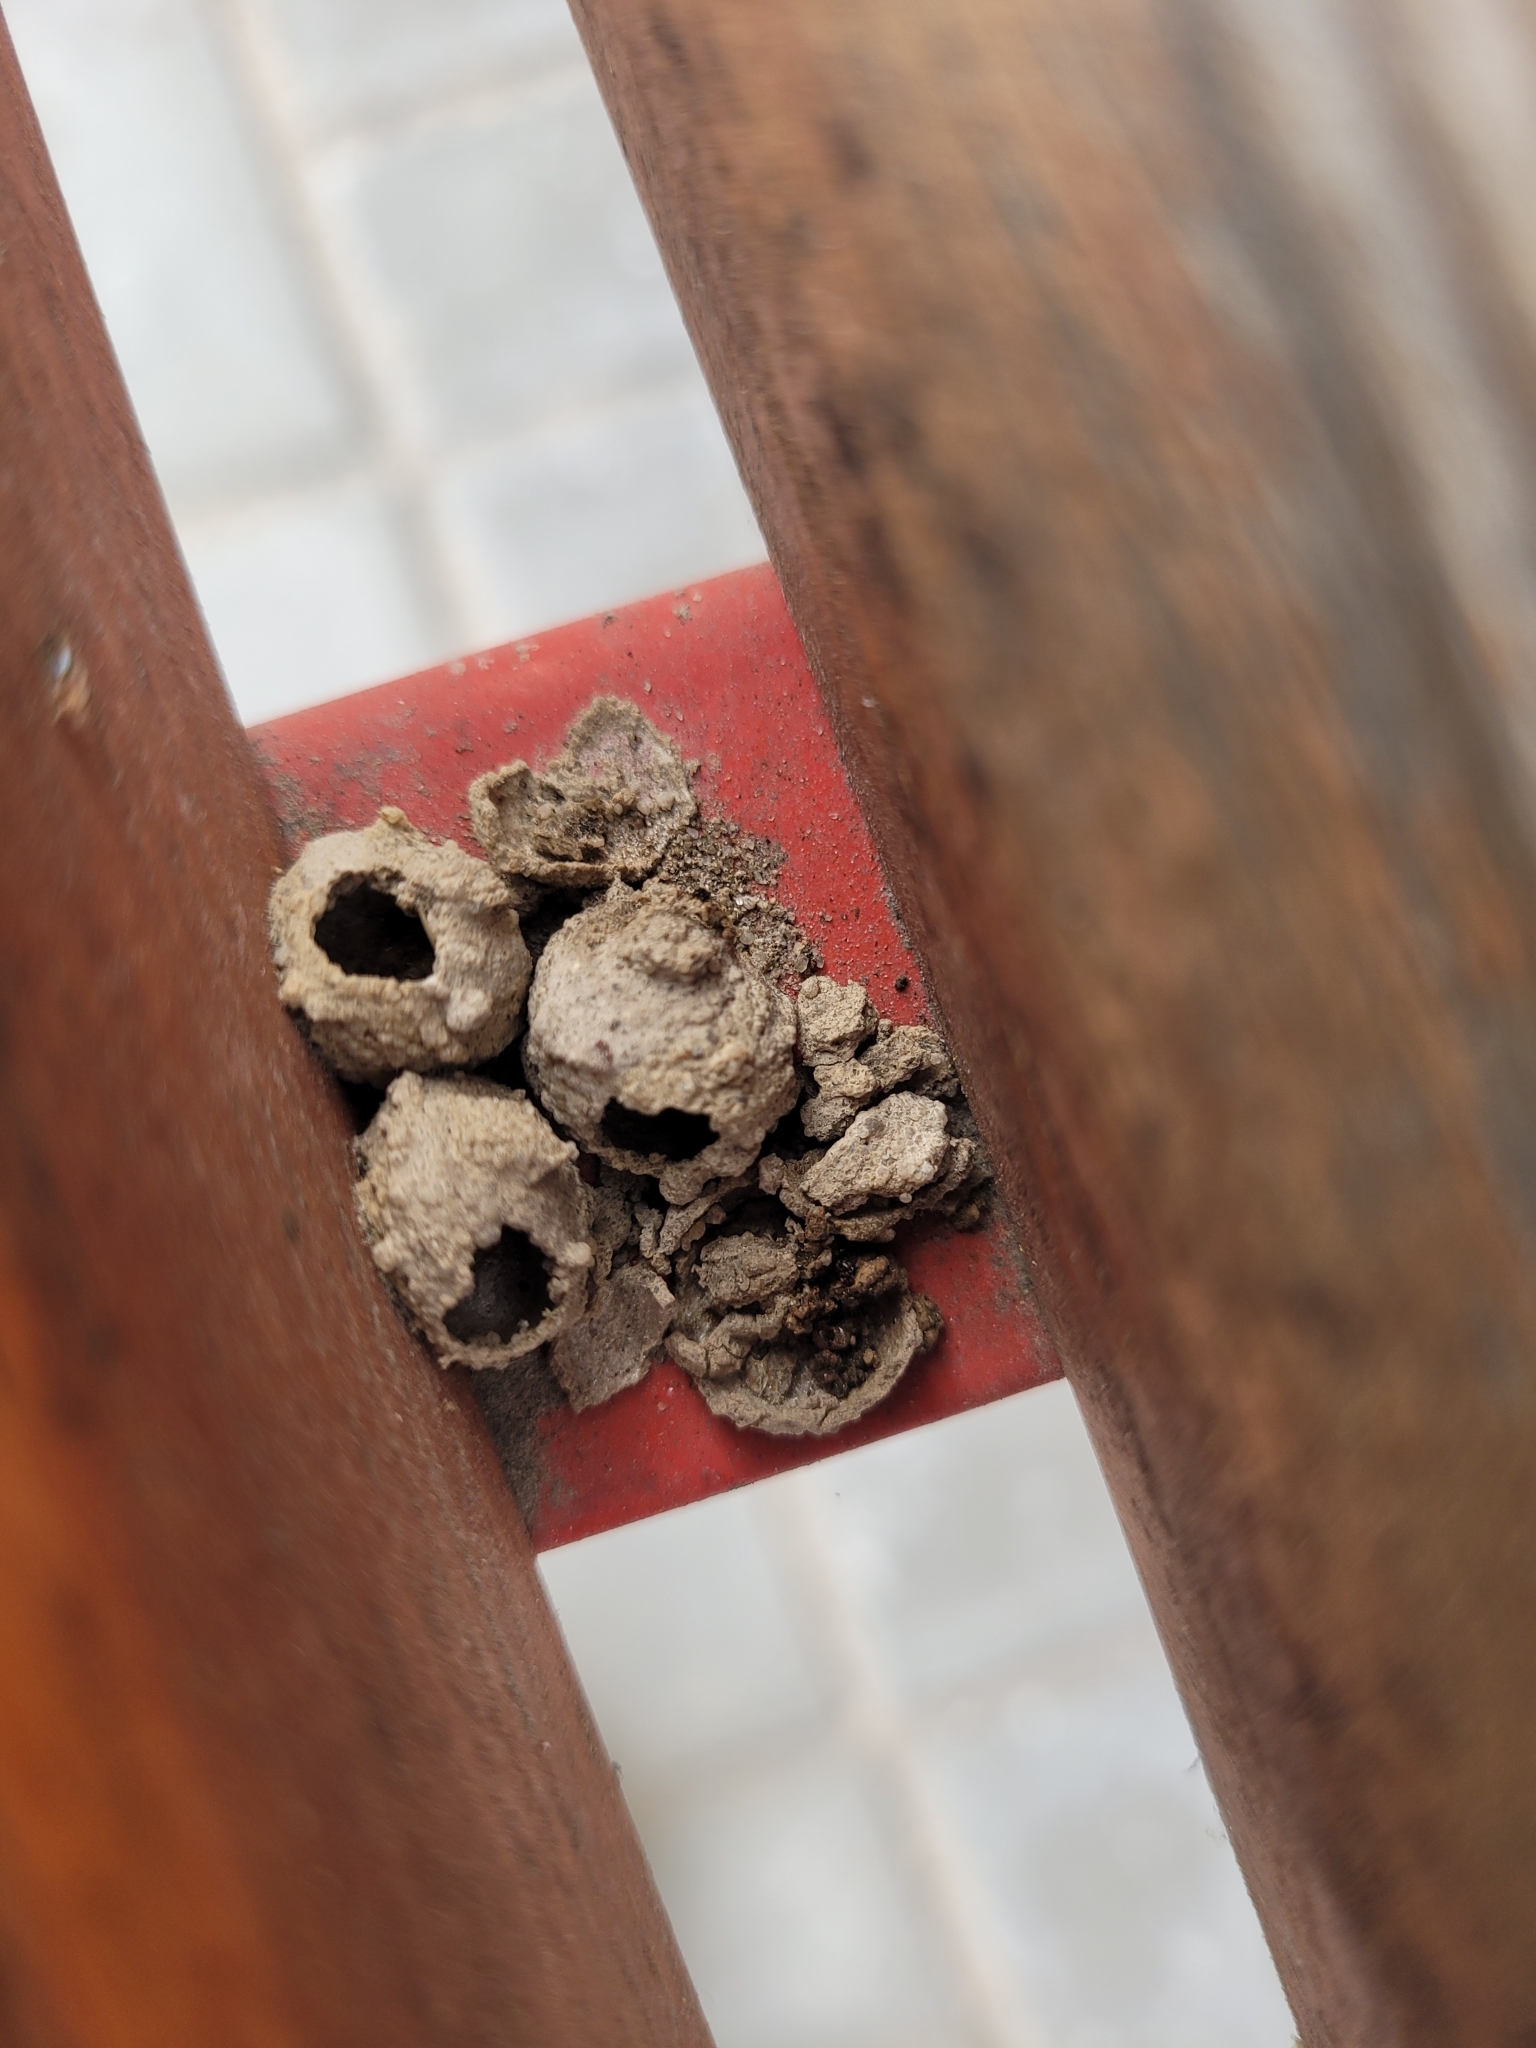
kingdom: Animalia
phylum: Arthropoda
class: Insecta
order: Hymenoptera
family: Eumenidae
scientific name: Eumenidae
